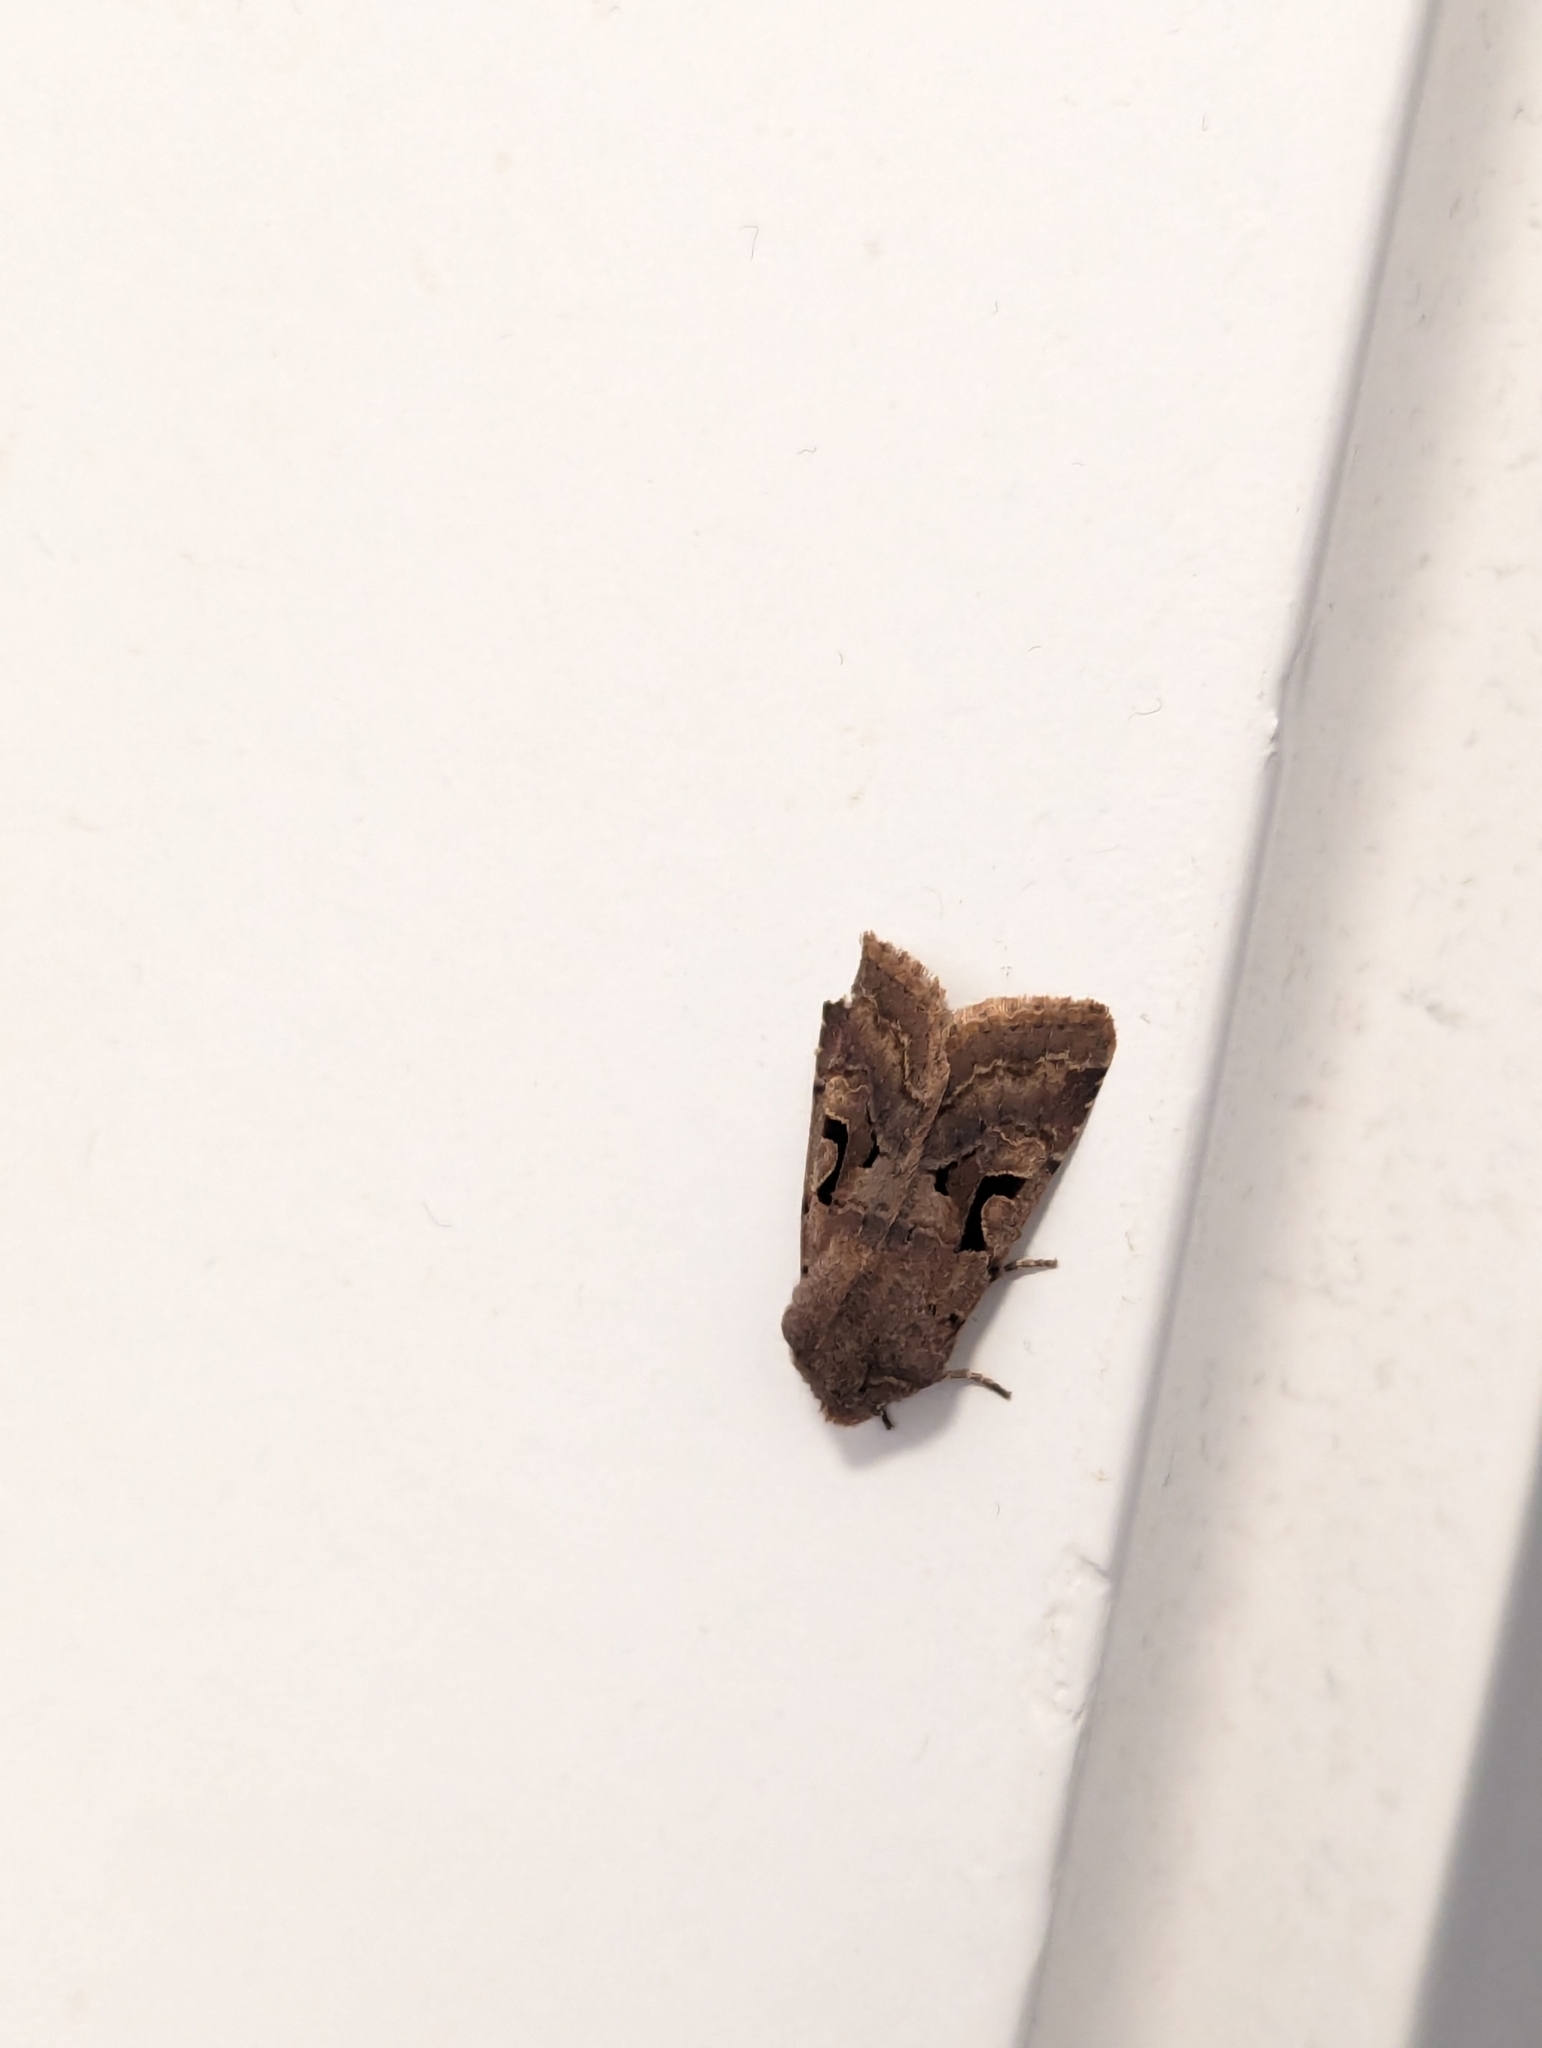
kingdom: Animalia
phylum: Arthropoda
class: Insecta
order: Lepidoptera
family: Noctuidae
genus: Orthosia
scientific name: Orthosia gothica
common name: Hebrew character
